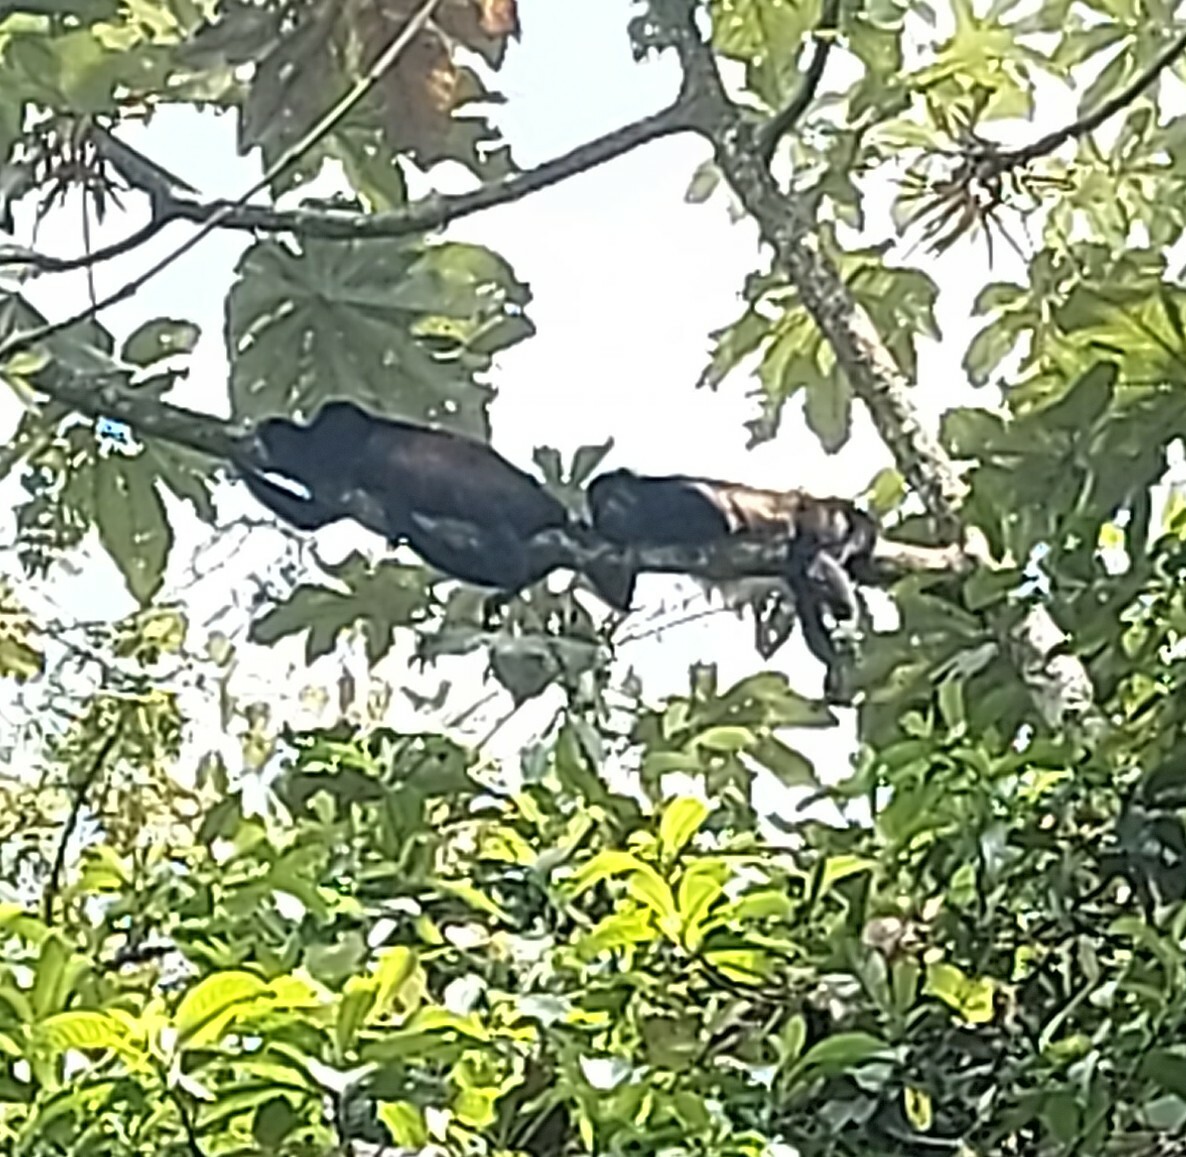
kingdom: Animalia
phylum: Chordata
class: Mammalia
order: Primates
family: Atelidae
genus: Alouatta
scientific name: Alouatta palliata
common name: Mantled howler
